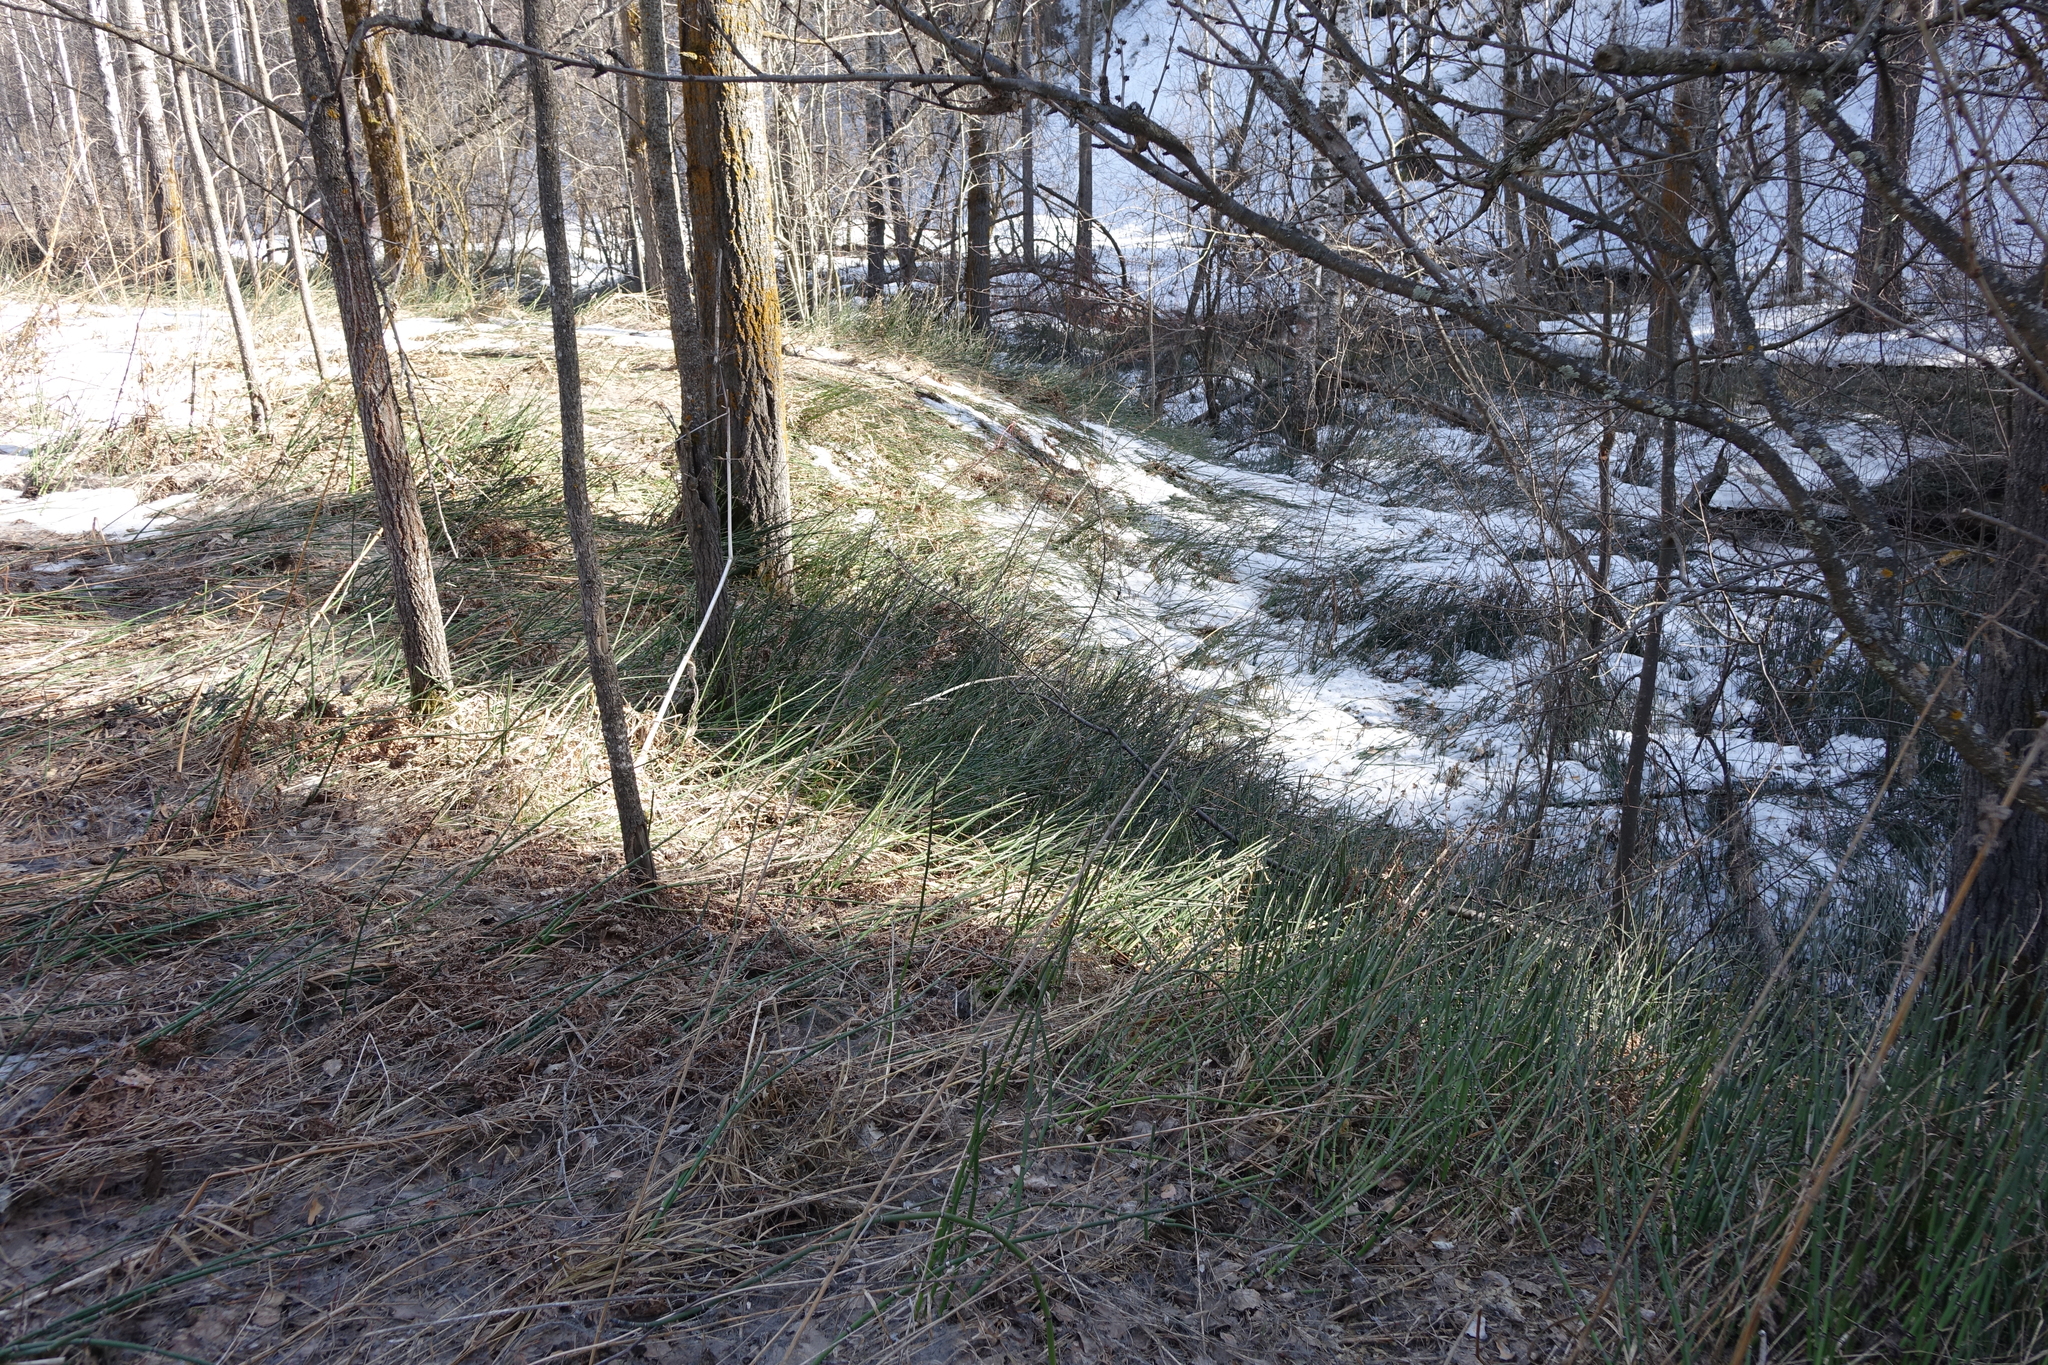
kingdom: Plantae
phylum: Tracheophyta
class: Polypodiopsida
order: Equisetales
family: Equisetaceae
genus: Equisetum
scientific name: Equisetum hyemale
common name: Rough horsetail
